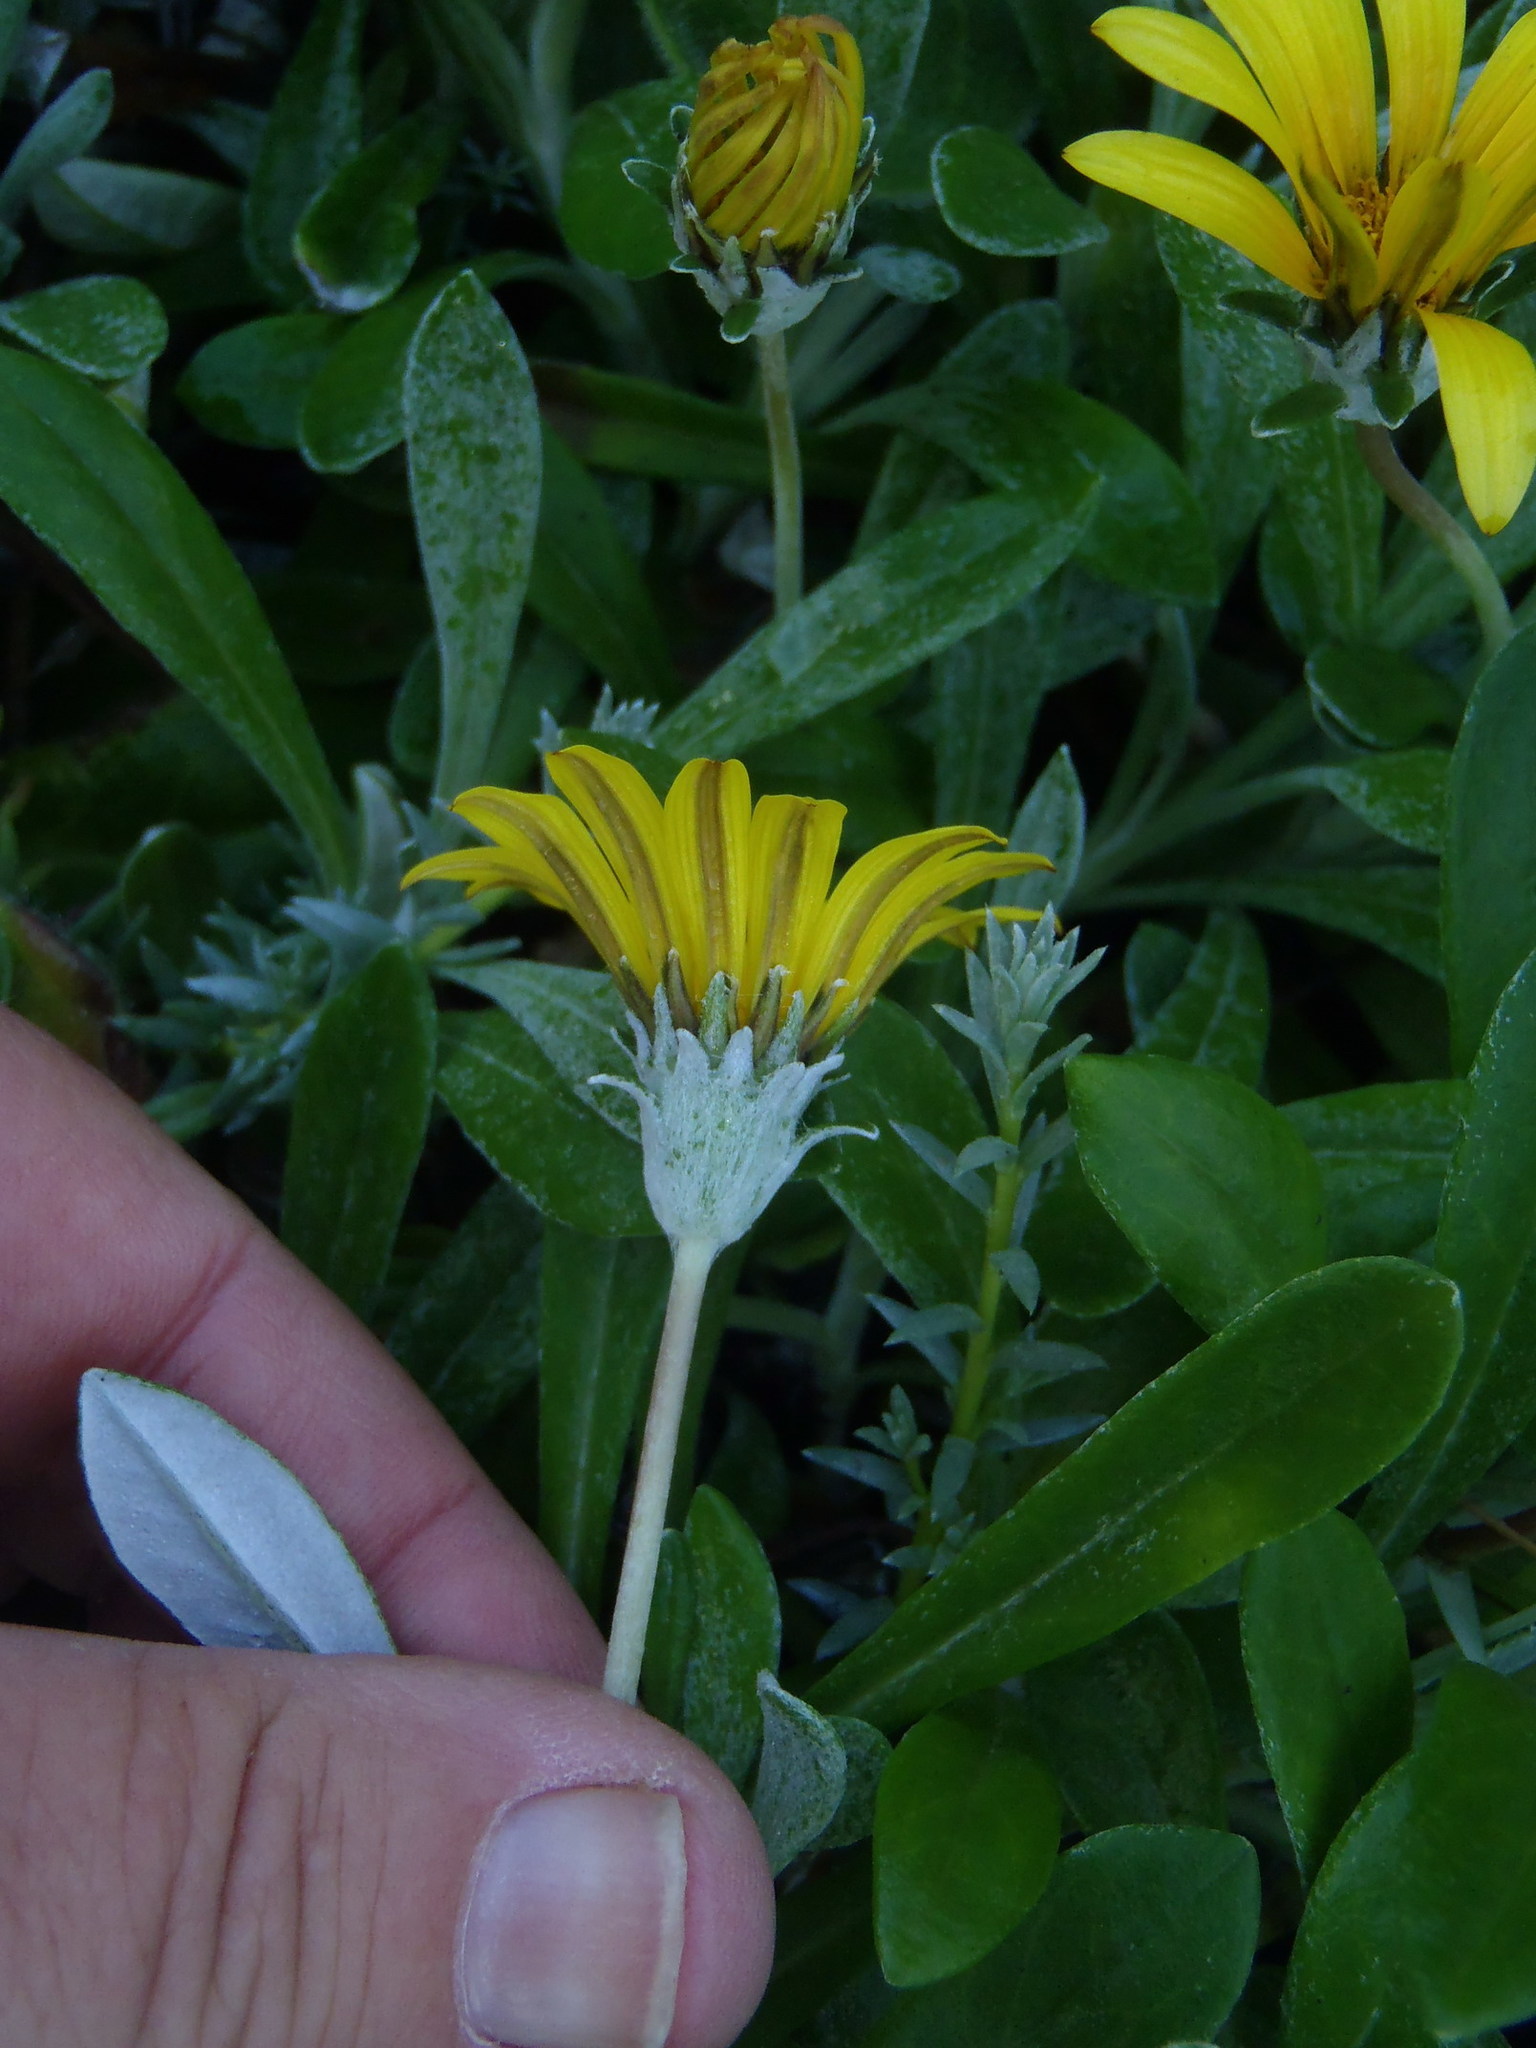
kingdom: Plantae
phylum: Tracheophyta
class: Magnoliopsida
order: Asterales
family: Asteraceae
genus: Gazania
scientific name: Gazania rigens
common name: Treasureflower
